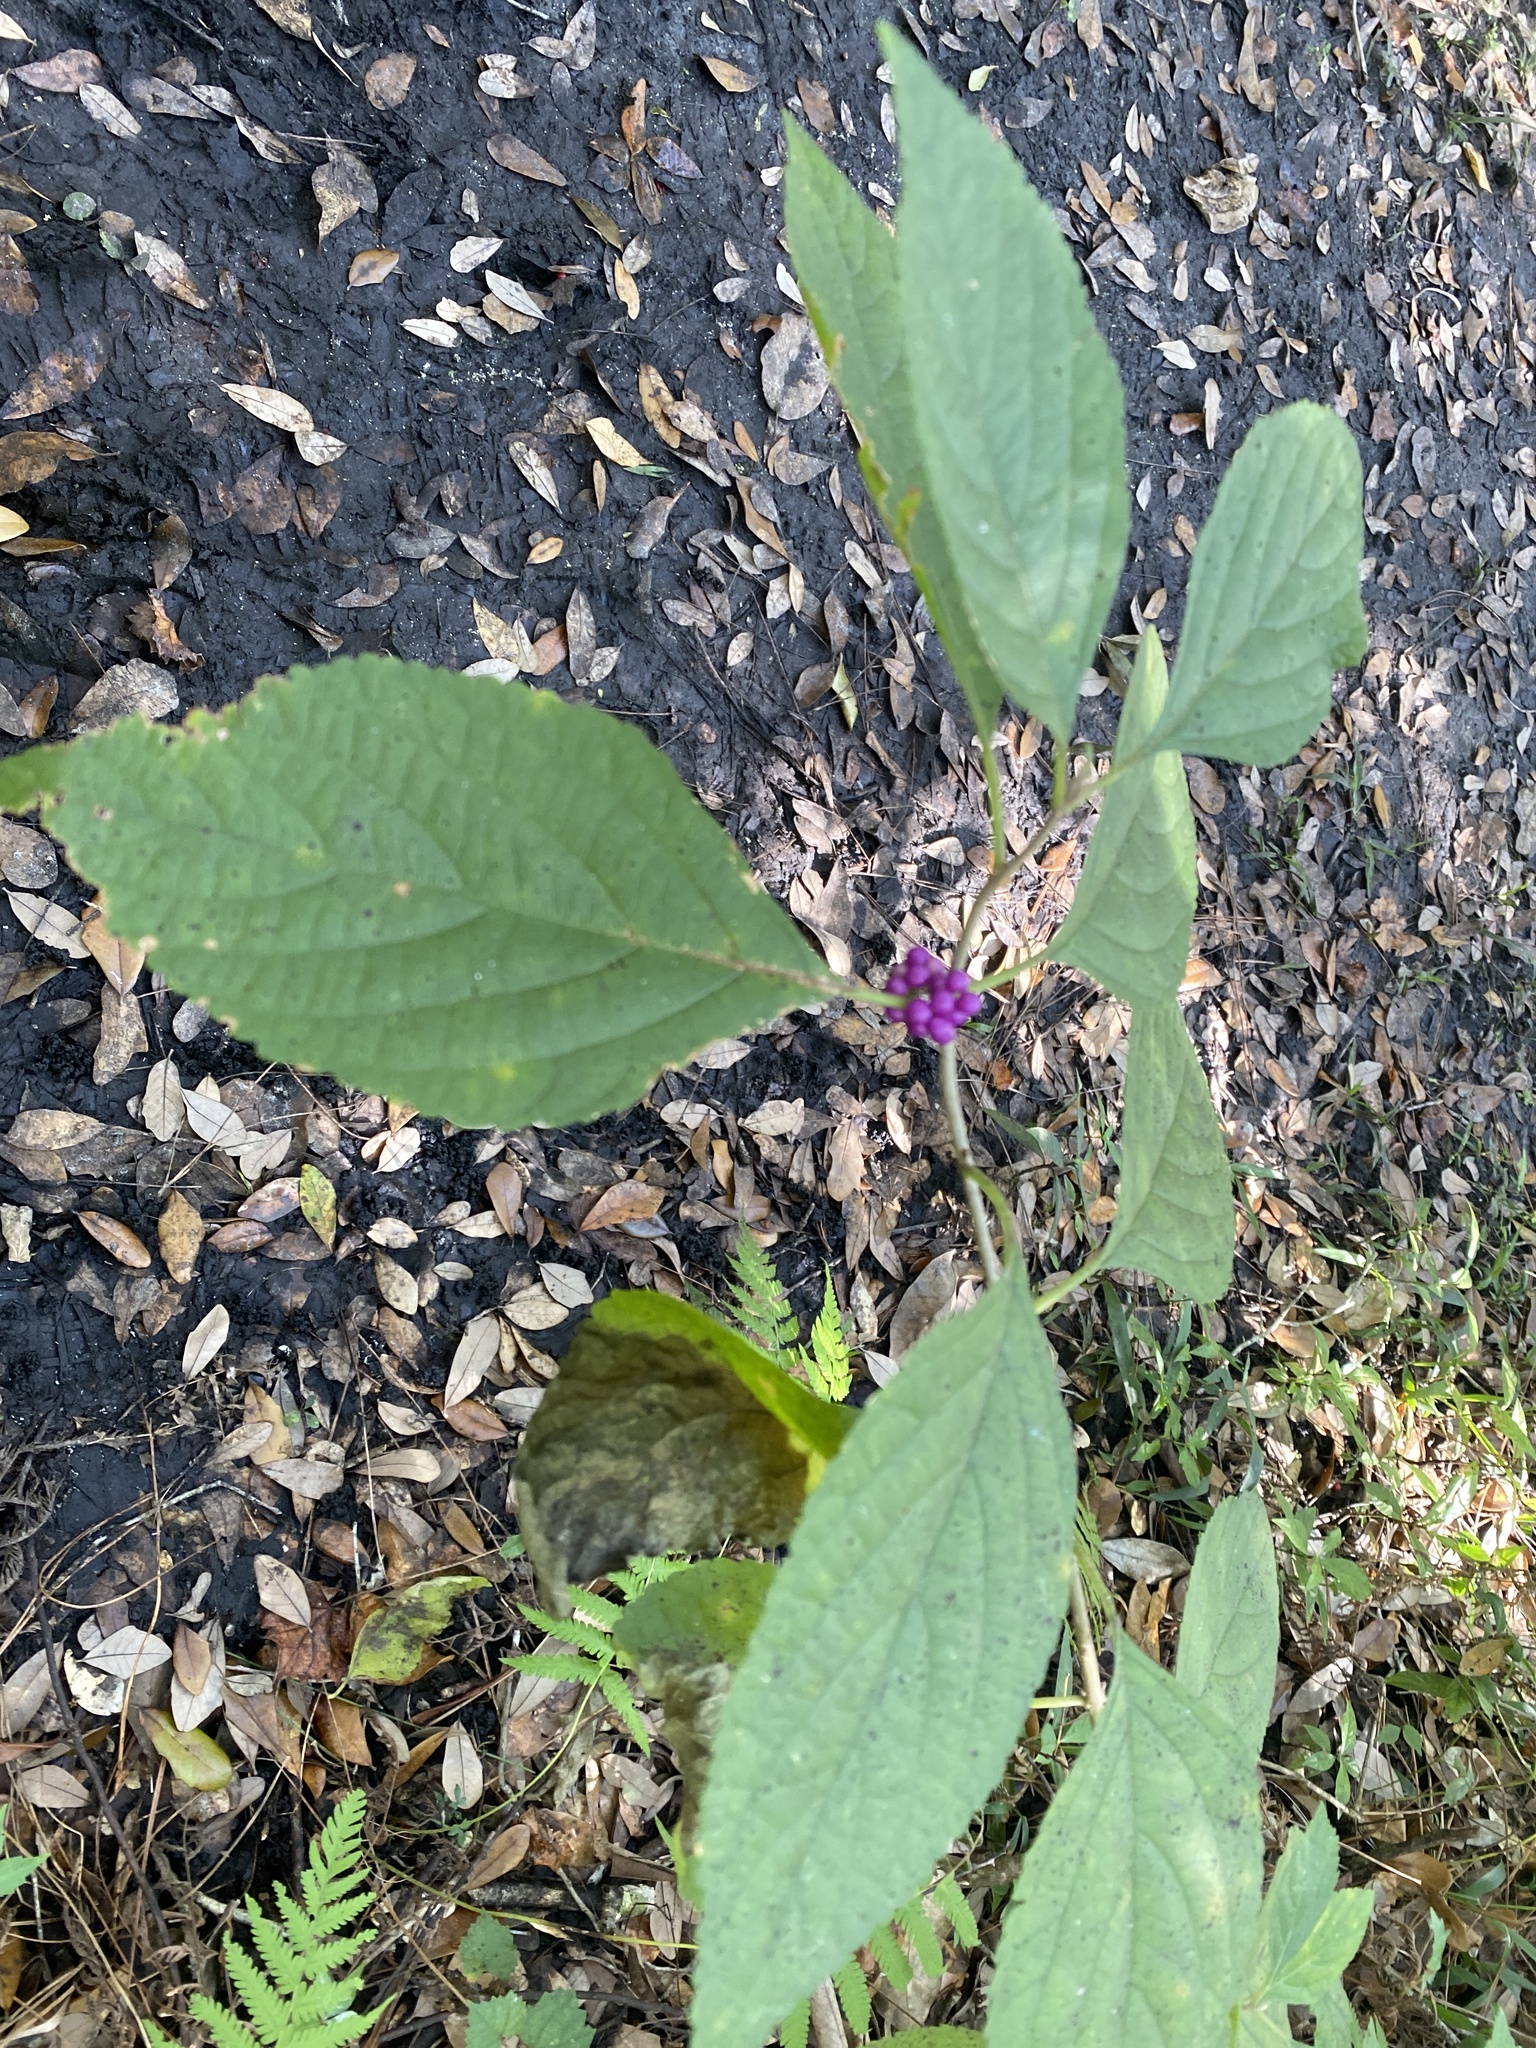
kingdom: Plantae
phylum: Tracheophyta
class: Magnoliopsida
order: Lamiales
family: Lamiaceae
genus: Callicarpa
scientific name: Callicarpa americana
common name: American beautyberry
